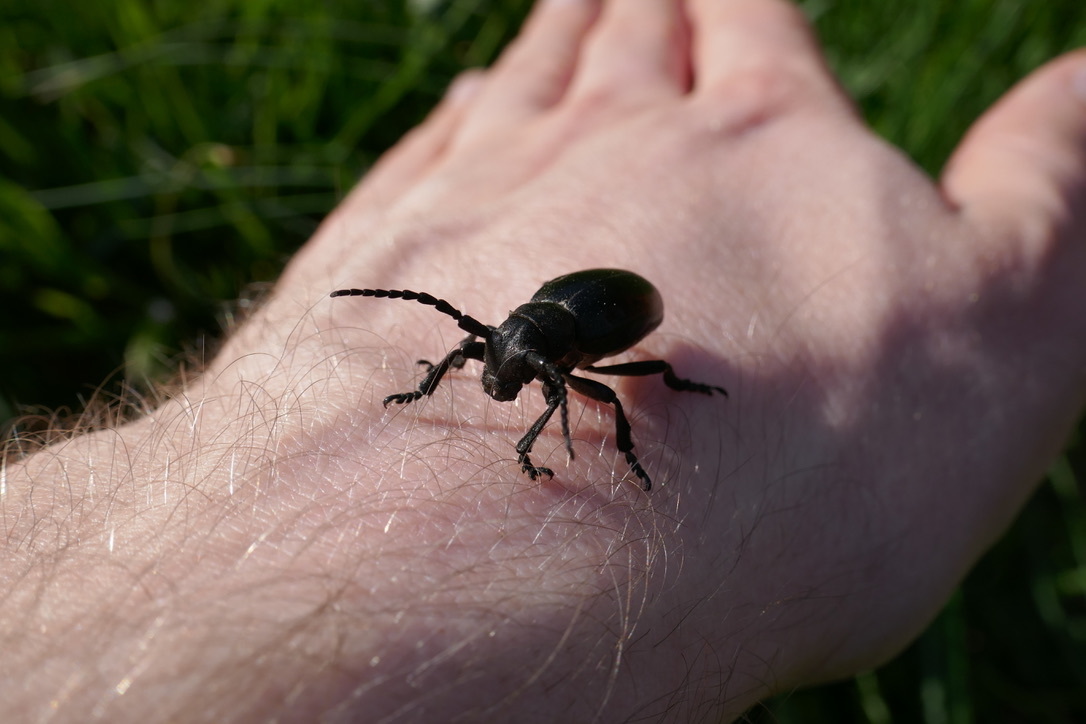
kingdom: Animalia
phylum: Arthropoda
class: Insecta
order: Coleoptera
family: Cerambycidae
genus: Dorcadion
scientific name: Dorcadion aethiops
